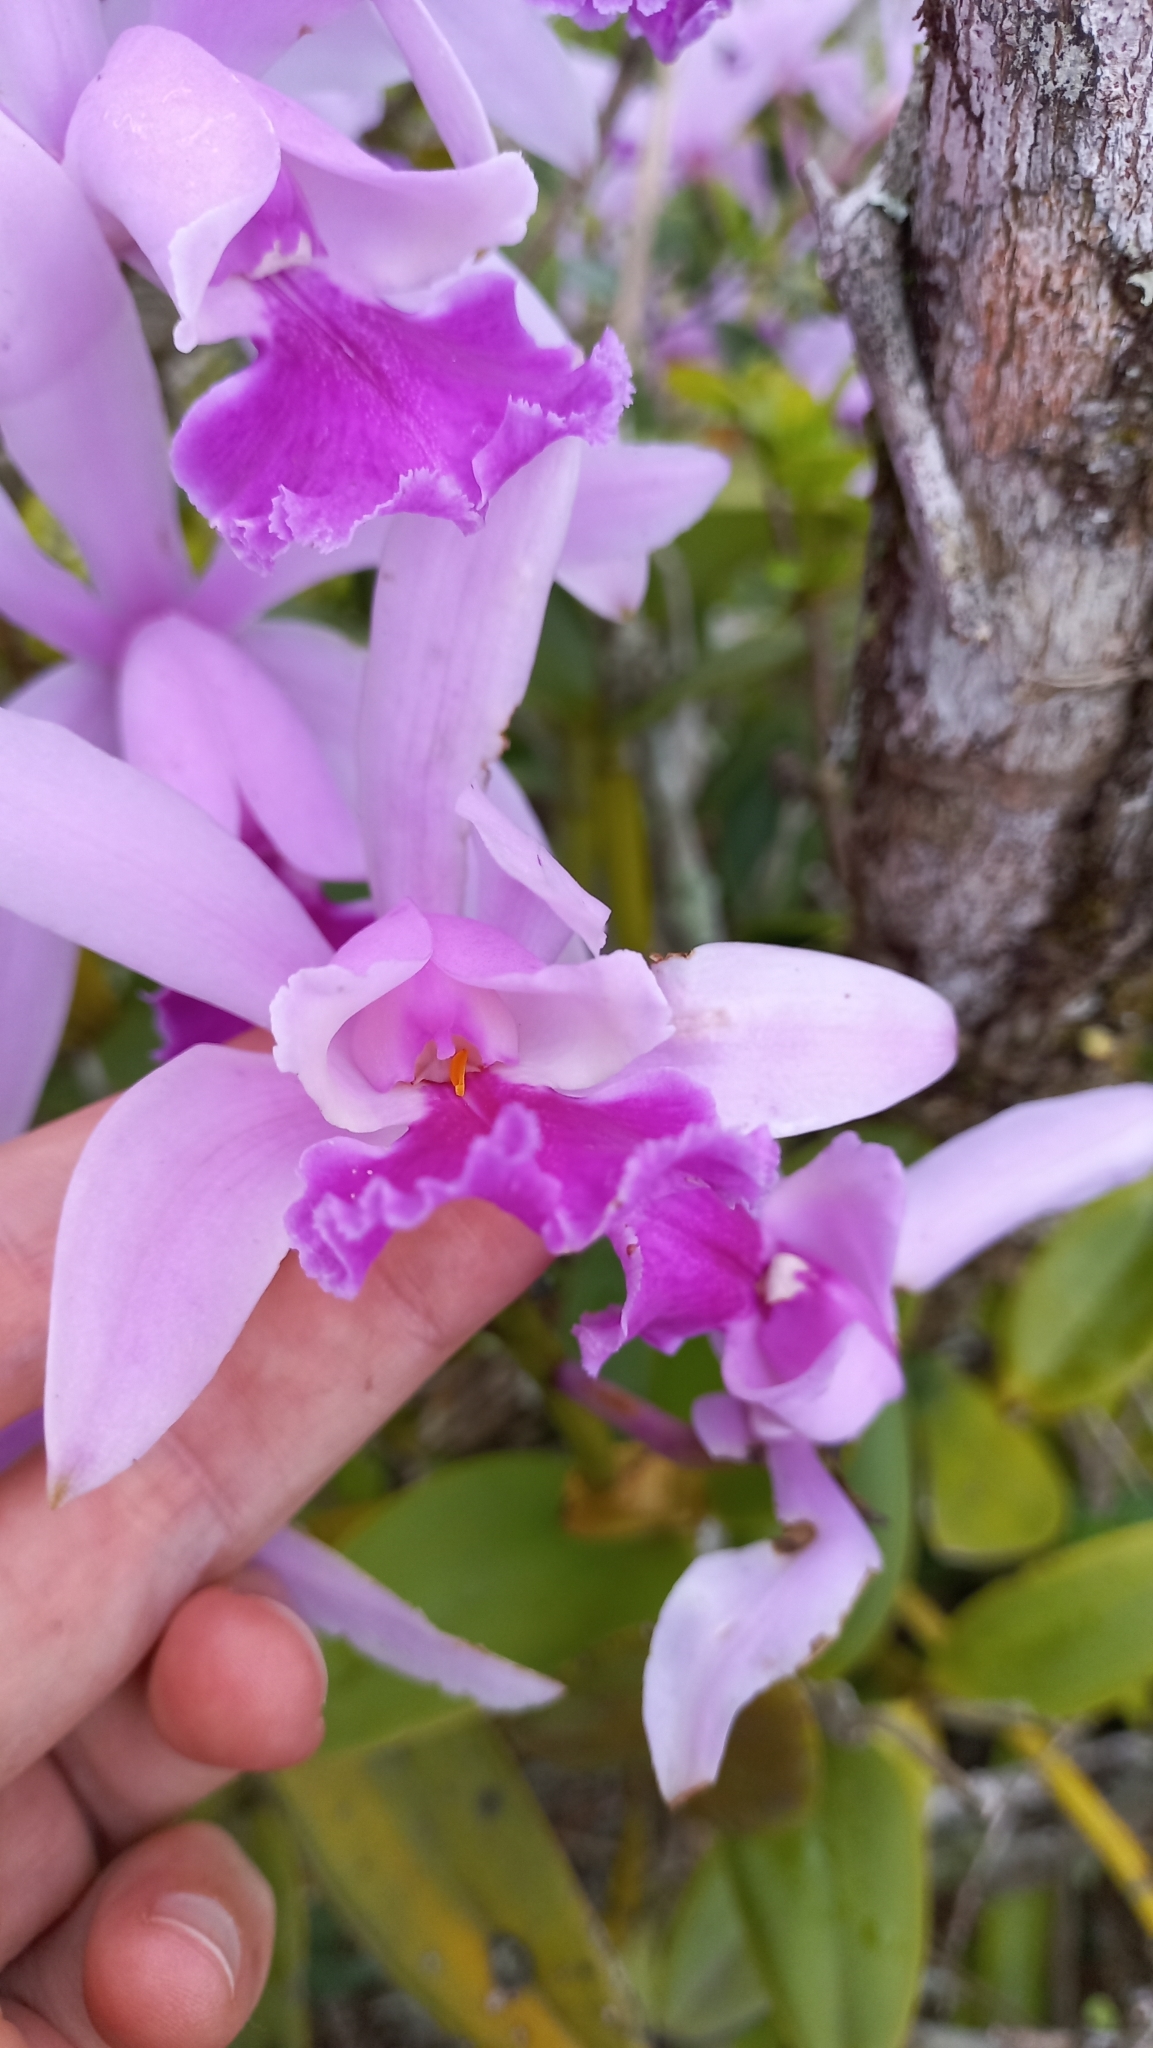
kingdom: Plantae
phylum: Tracheophyta
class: Liliopsida
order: Asparagales
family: Orchidaceae
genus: Cattleya
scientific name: Cattleya intermedia
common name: Intermediate cattleya
